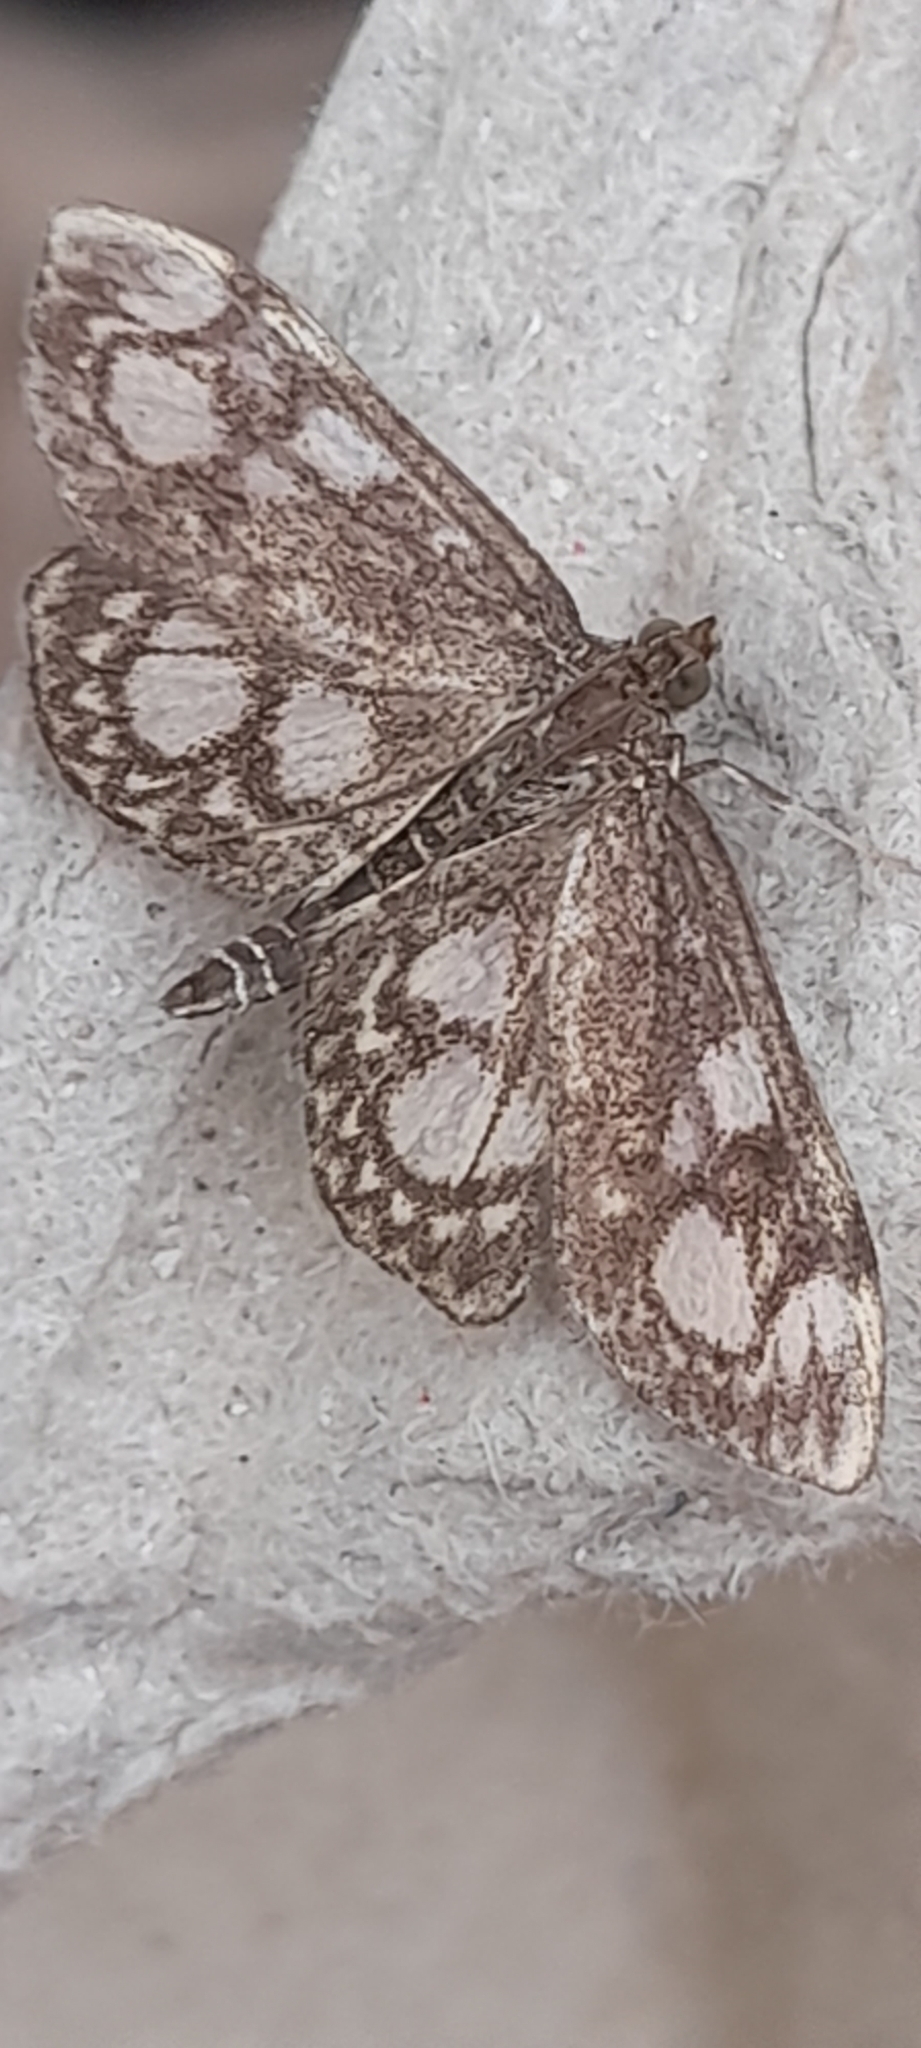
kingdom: Animalia
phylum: Arthropoda
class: Insecta
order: Lepidoptera
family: Crambidae
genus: Anania
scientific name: Anania coronata
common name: Elder pearl
